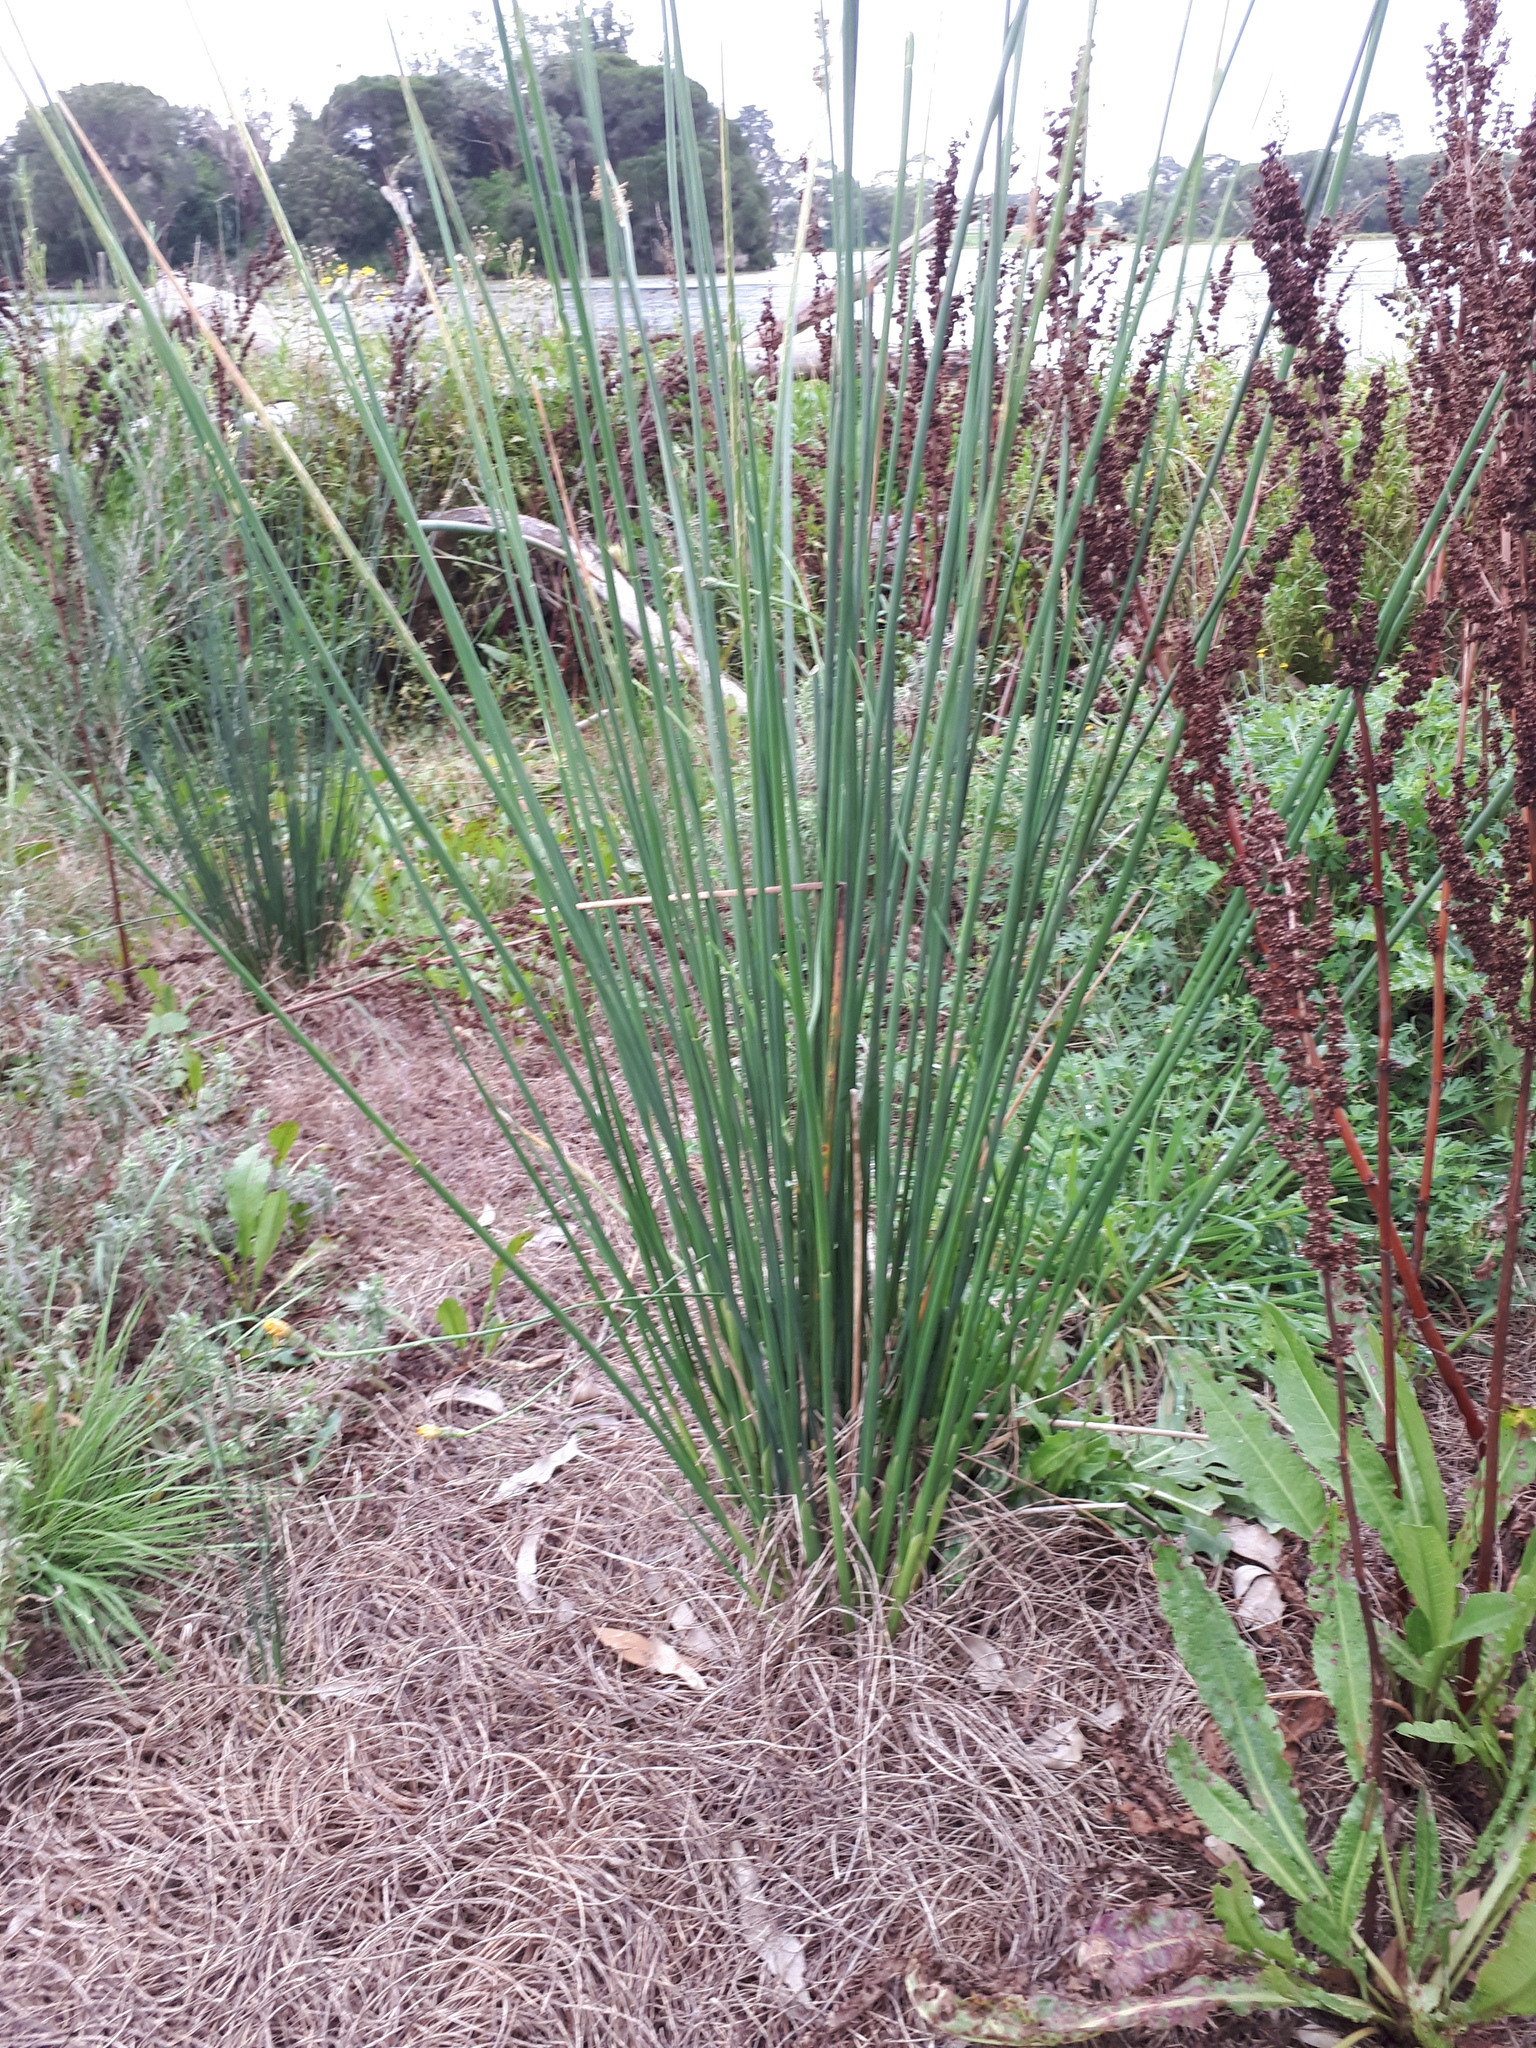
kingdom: Plantae
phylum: Tracheophyta
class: Liliopsida
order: Poales
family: Juncaceae
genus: Juncus
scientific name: Juncus pallidus
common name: Great soft-rush
